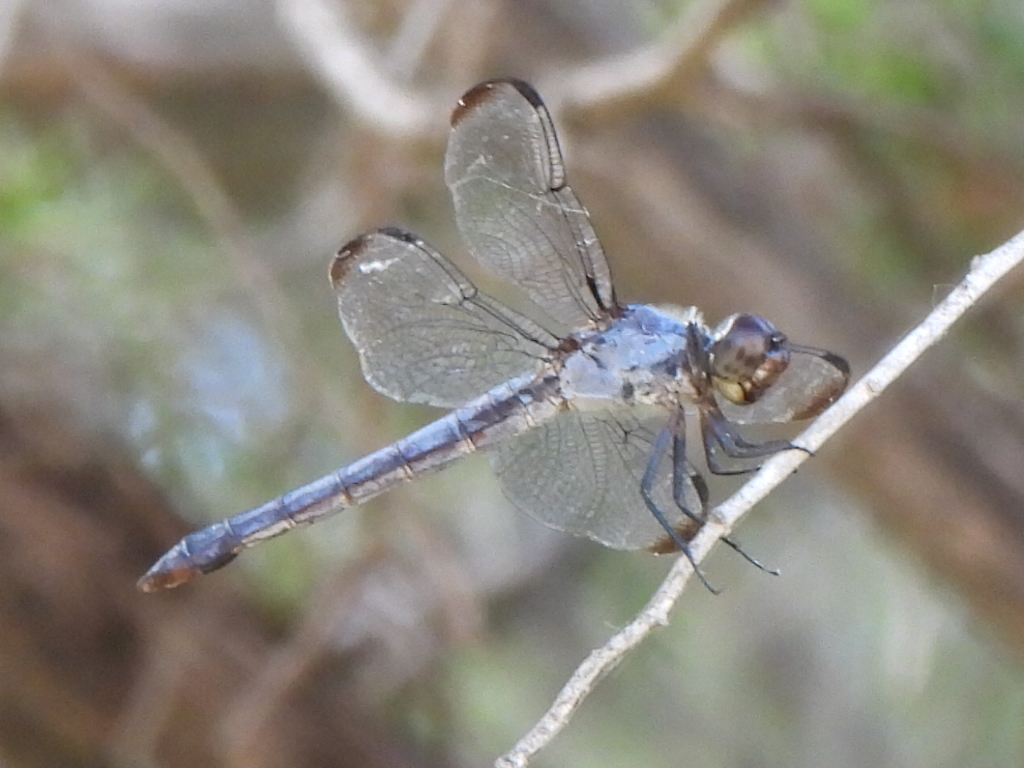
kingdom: Animalia
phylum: Arthropoda
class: Insecta
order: Odonata
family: Libellulidae
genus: Libellula
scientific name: Libellula incesta
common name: Slaty skimmer
